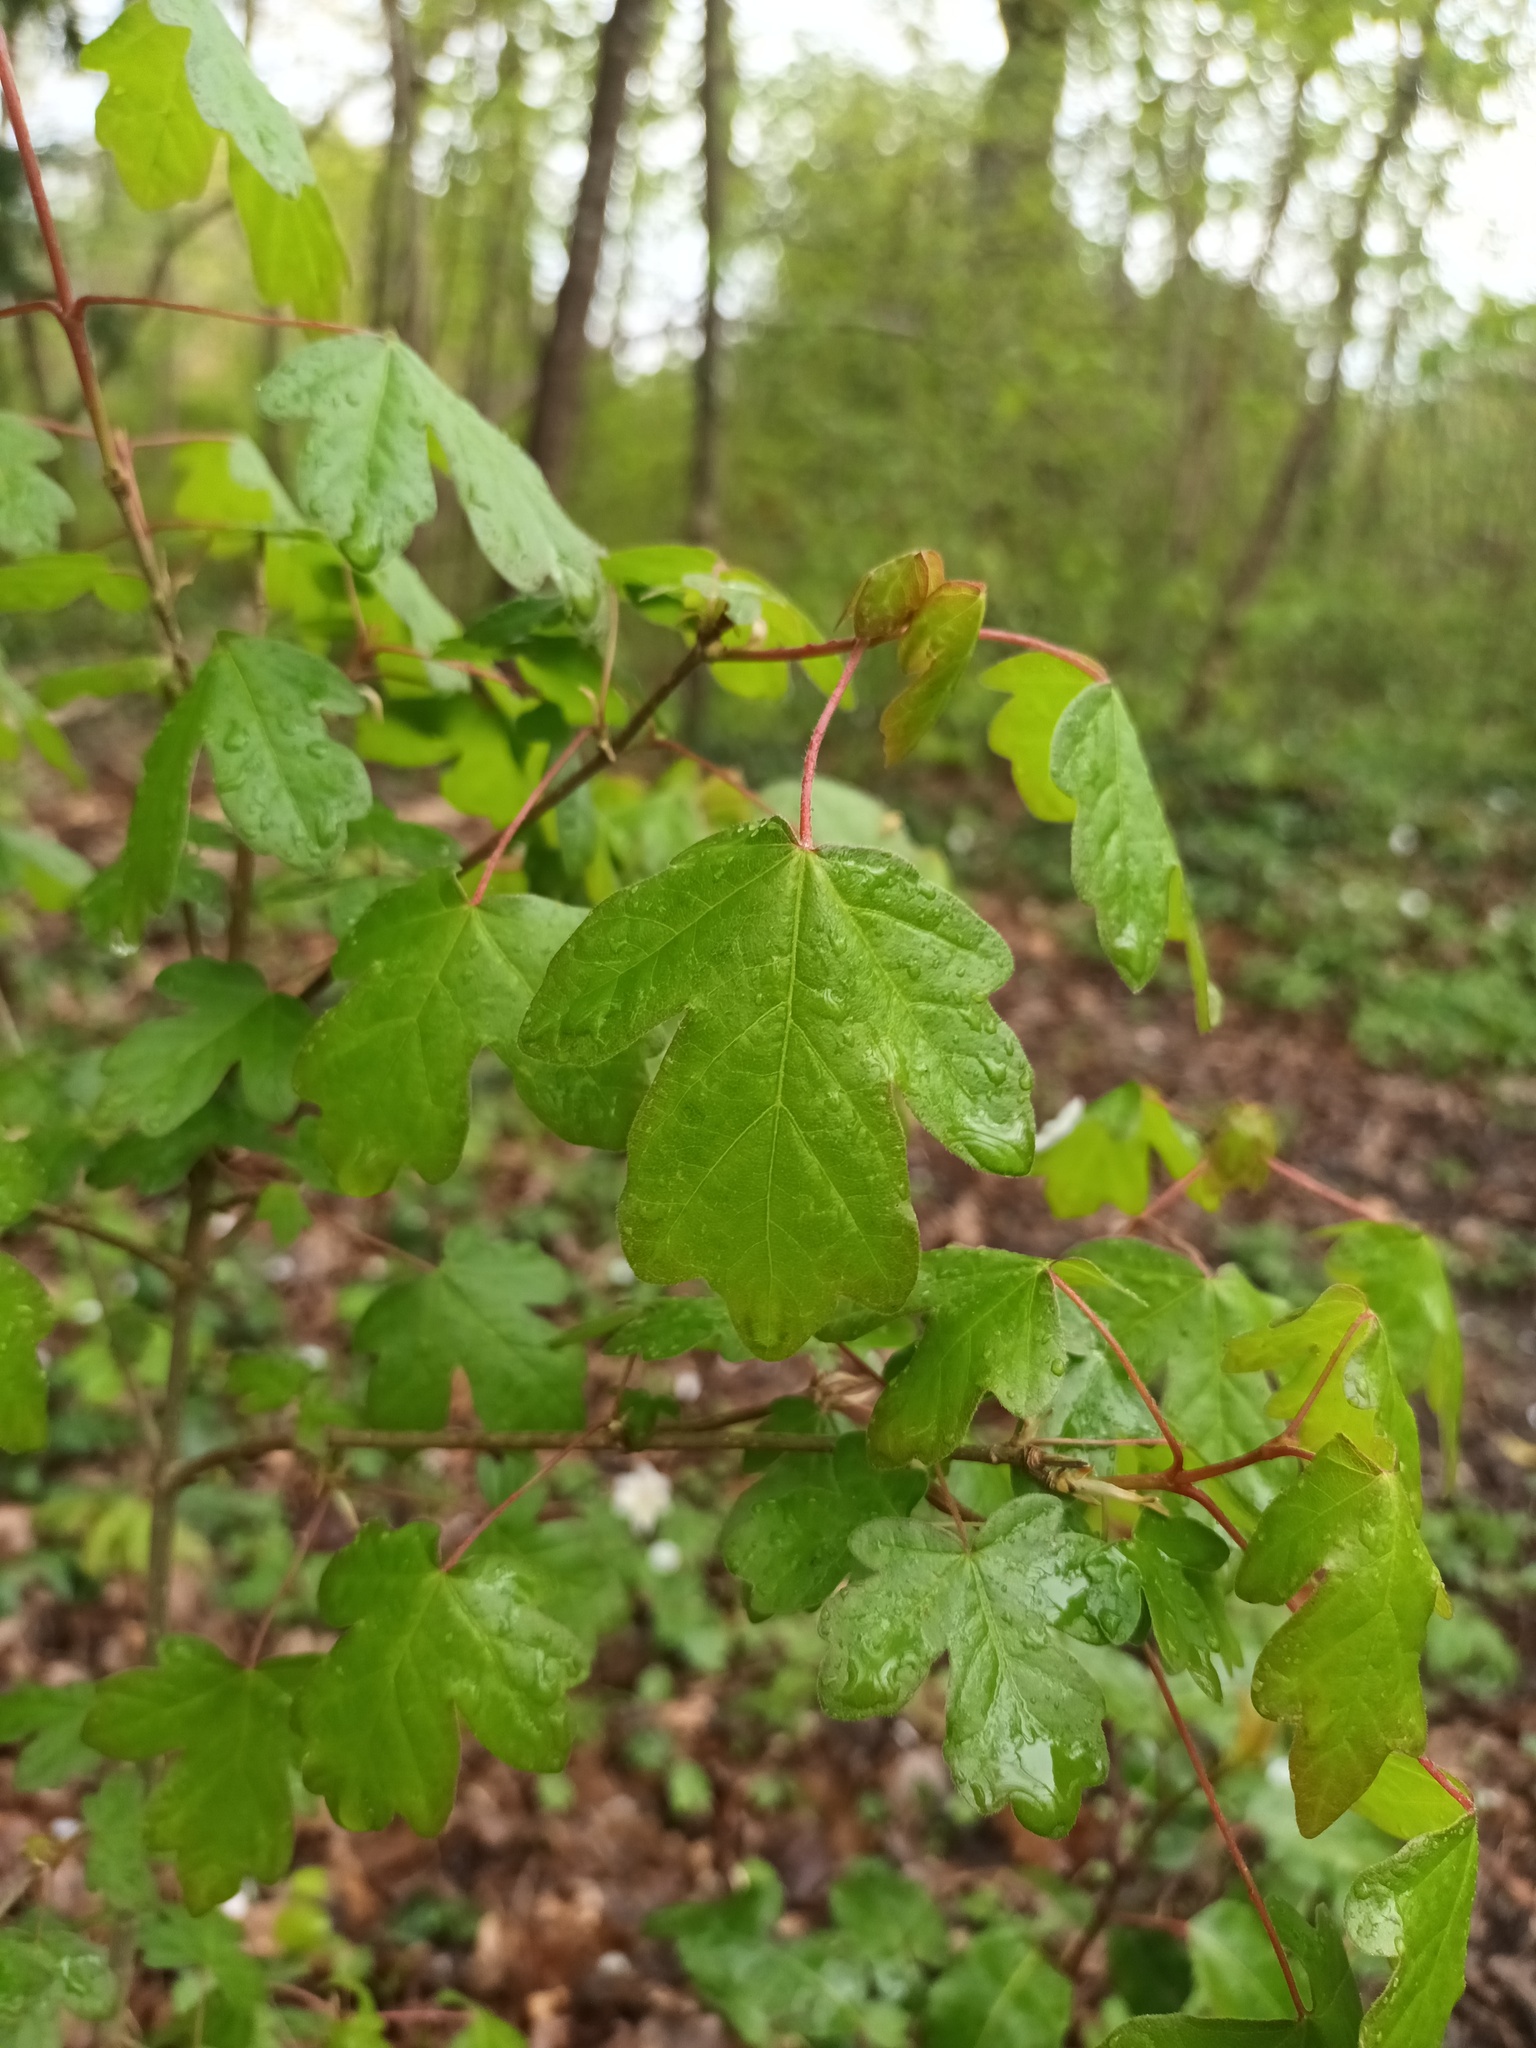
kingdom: Plantae
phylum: Tracheophyta
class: Magnoliopsida
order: Sapindales
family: Sapindaceae
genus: Acer
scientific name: Acer campestre
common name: Field maple
